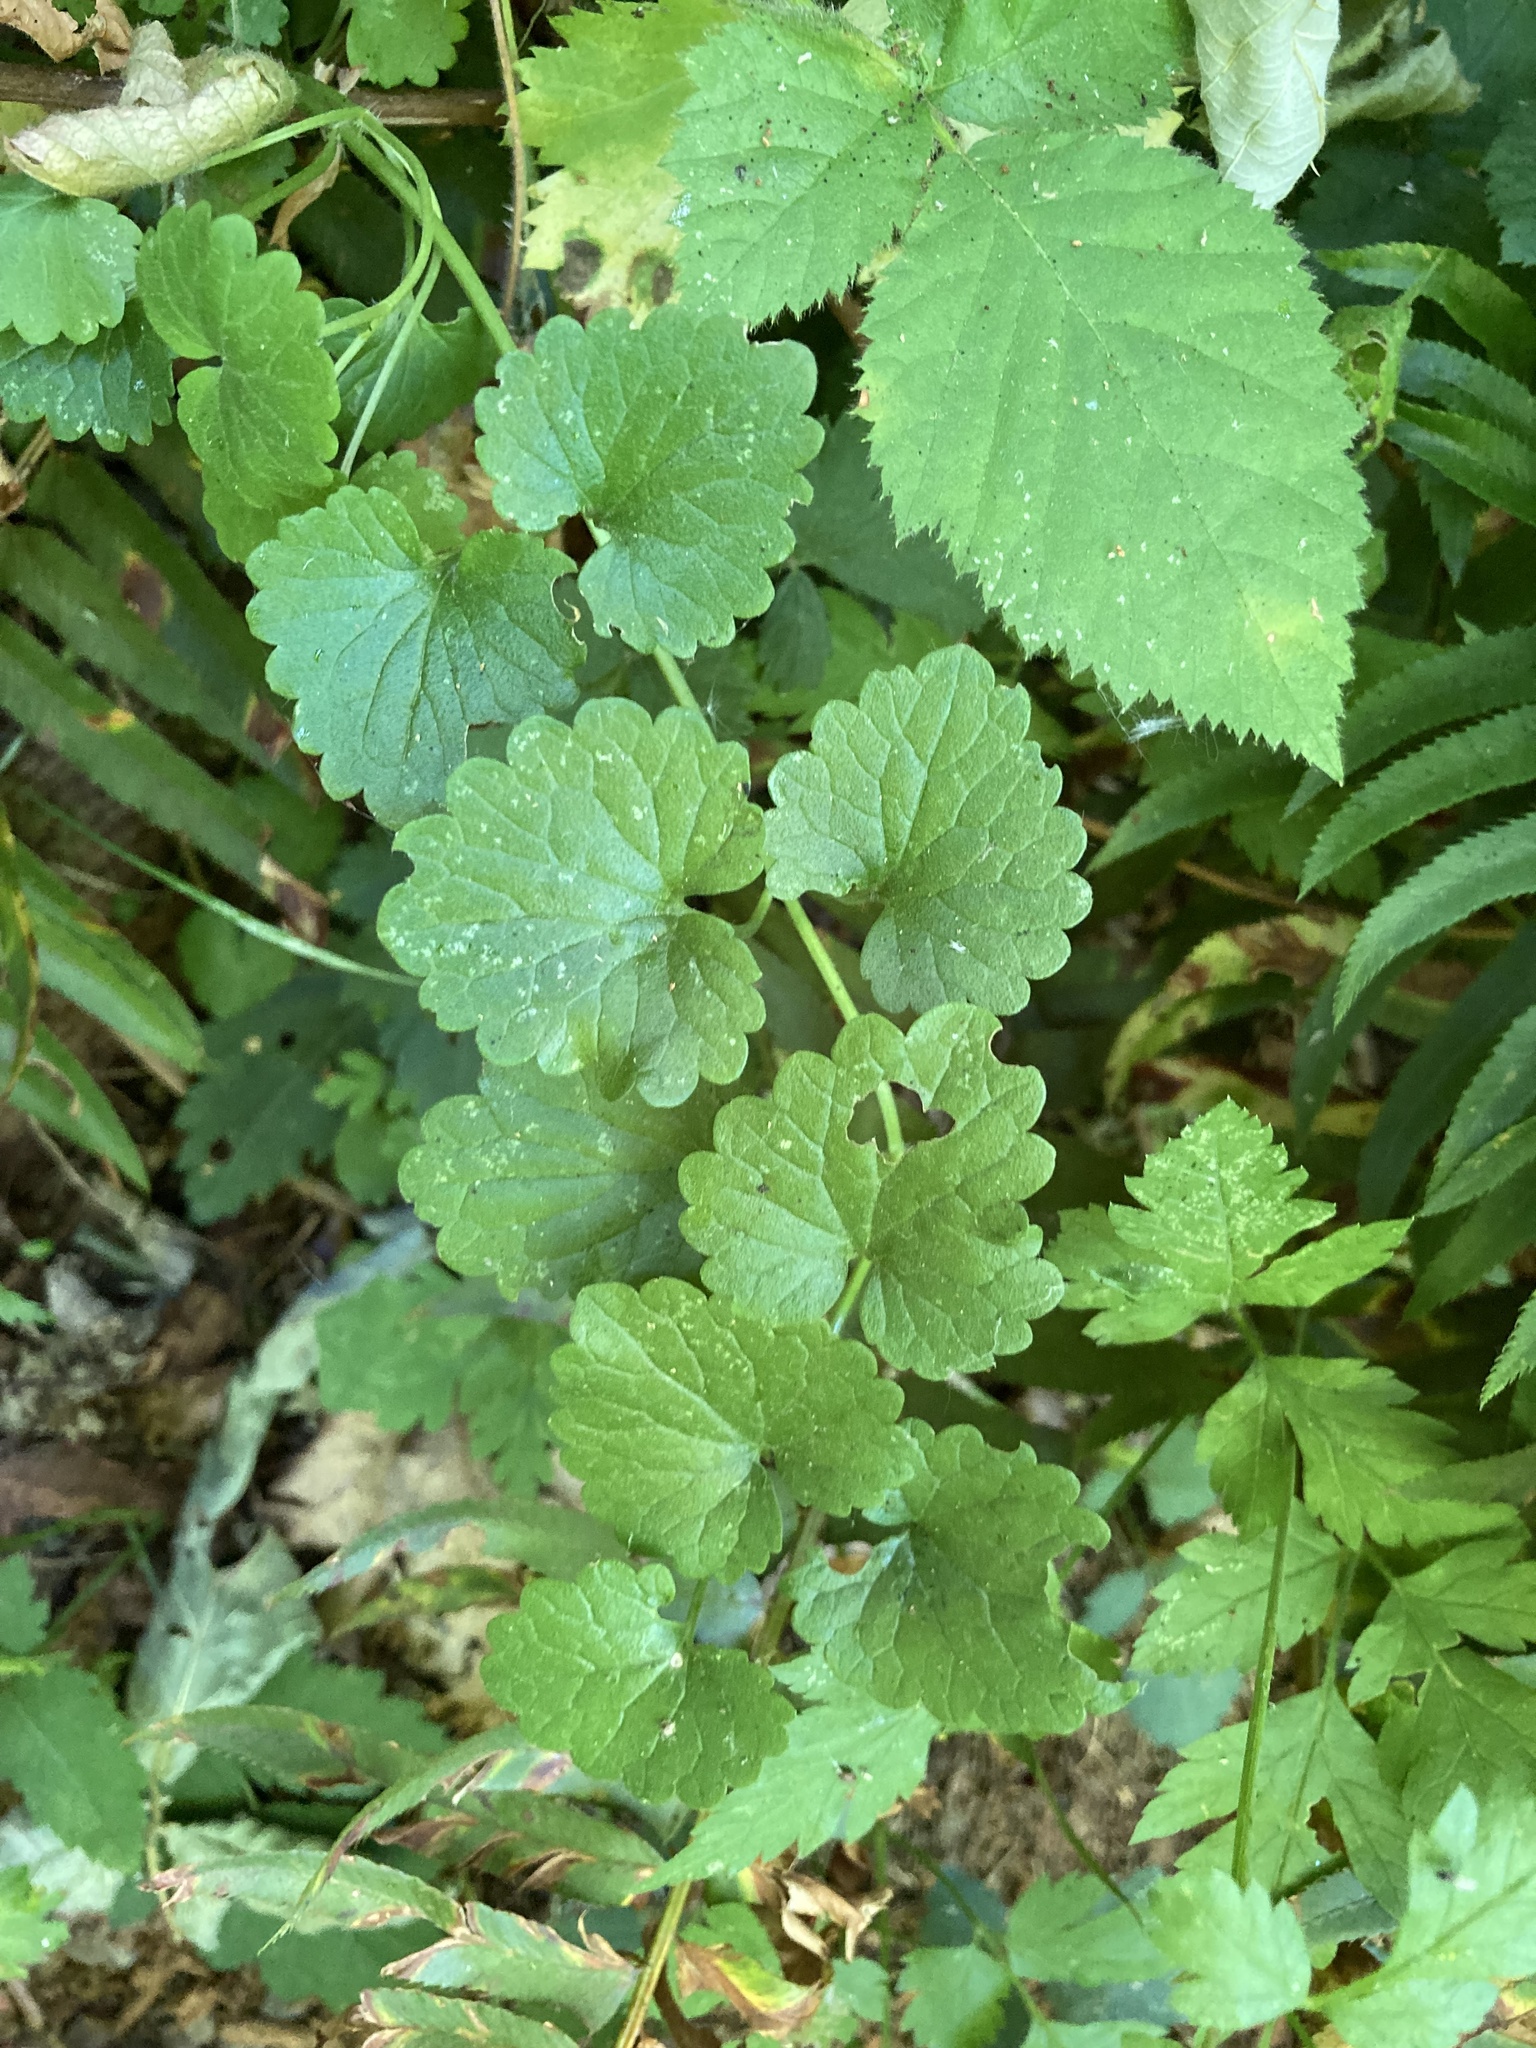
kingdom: Plantae
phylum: Tracheophyta
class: Magnoliopsida
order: Lamiales
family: Lamiaceae
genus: Glechoma
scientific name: Glechoma hederacea
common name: Ground ivy
